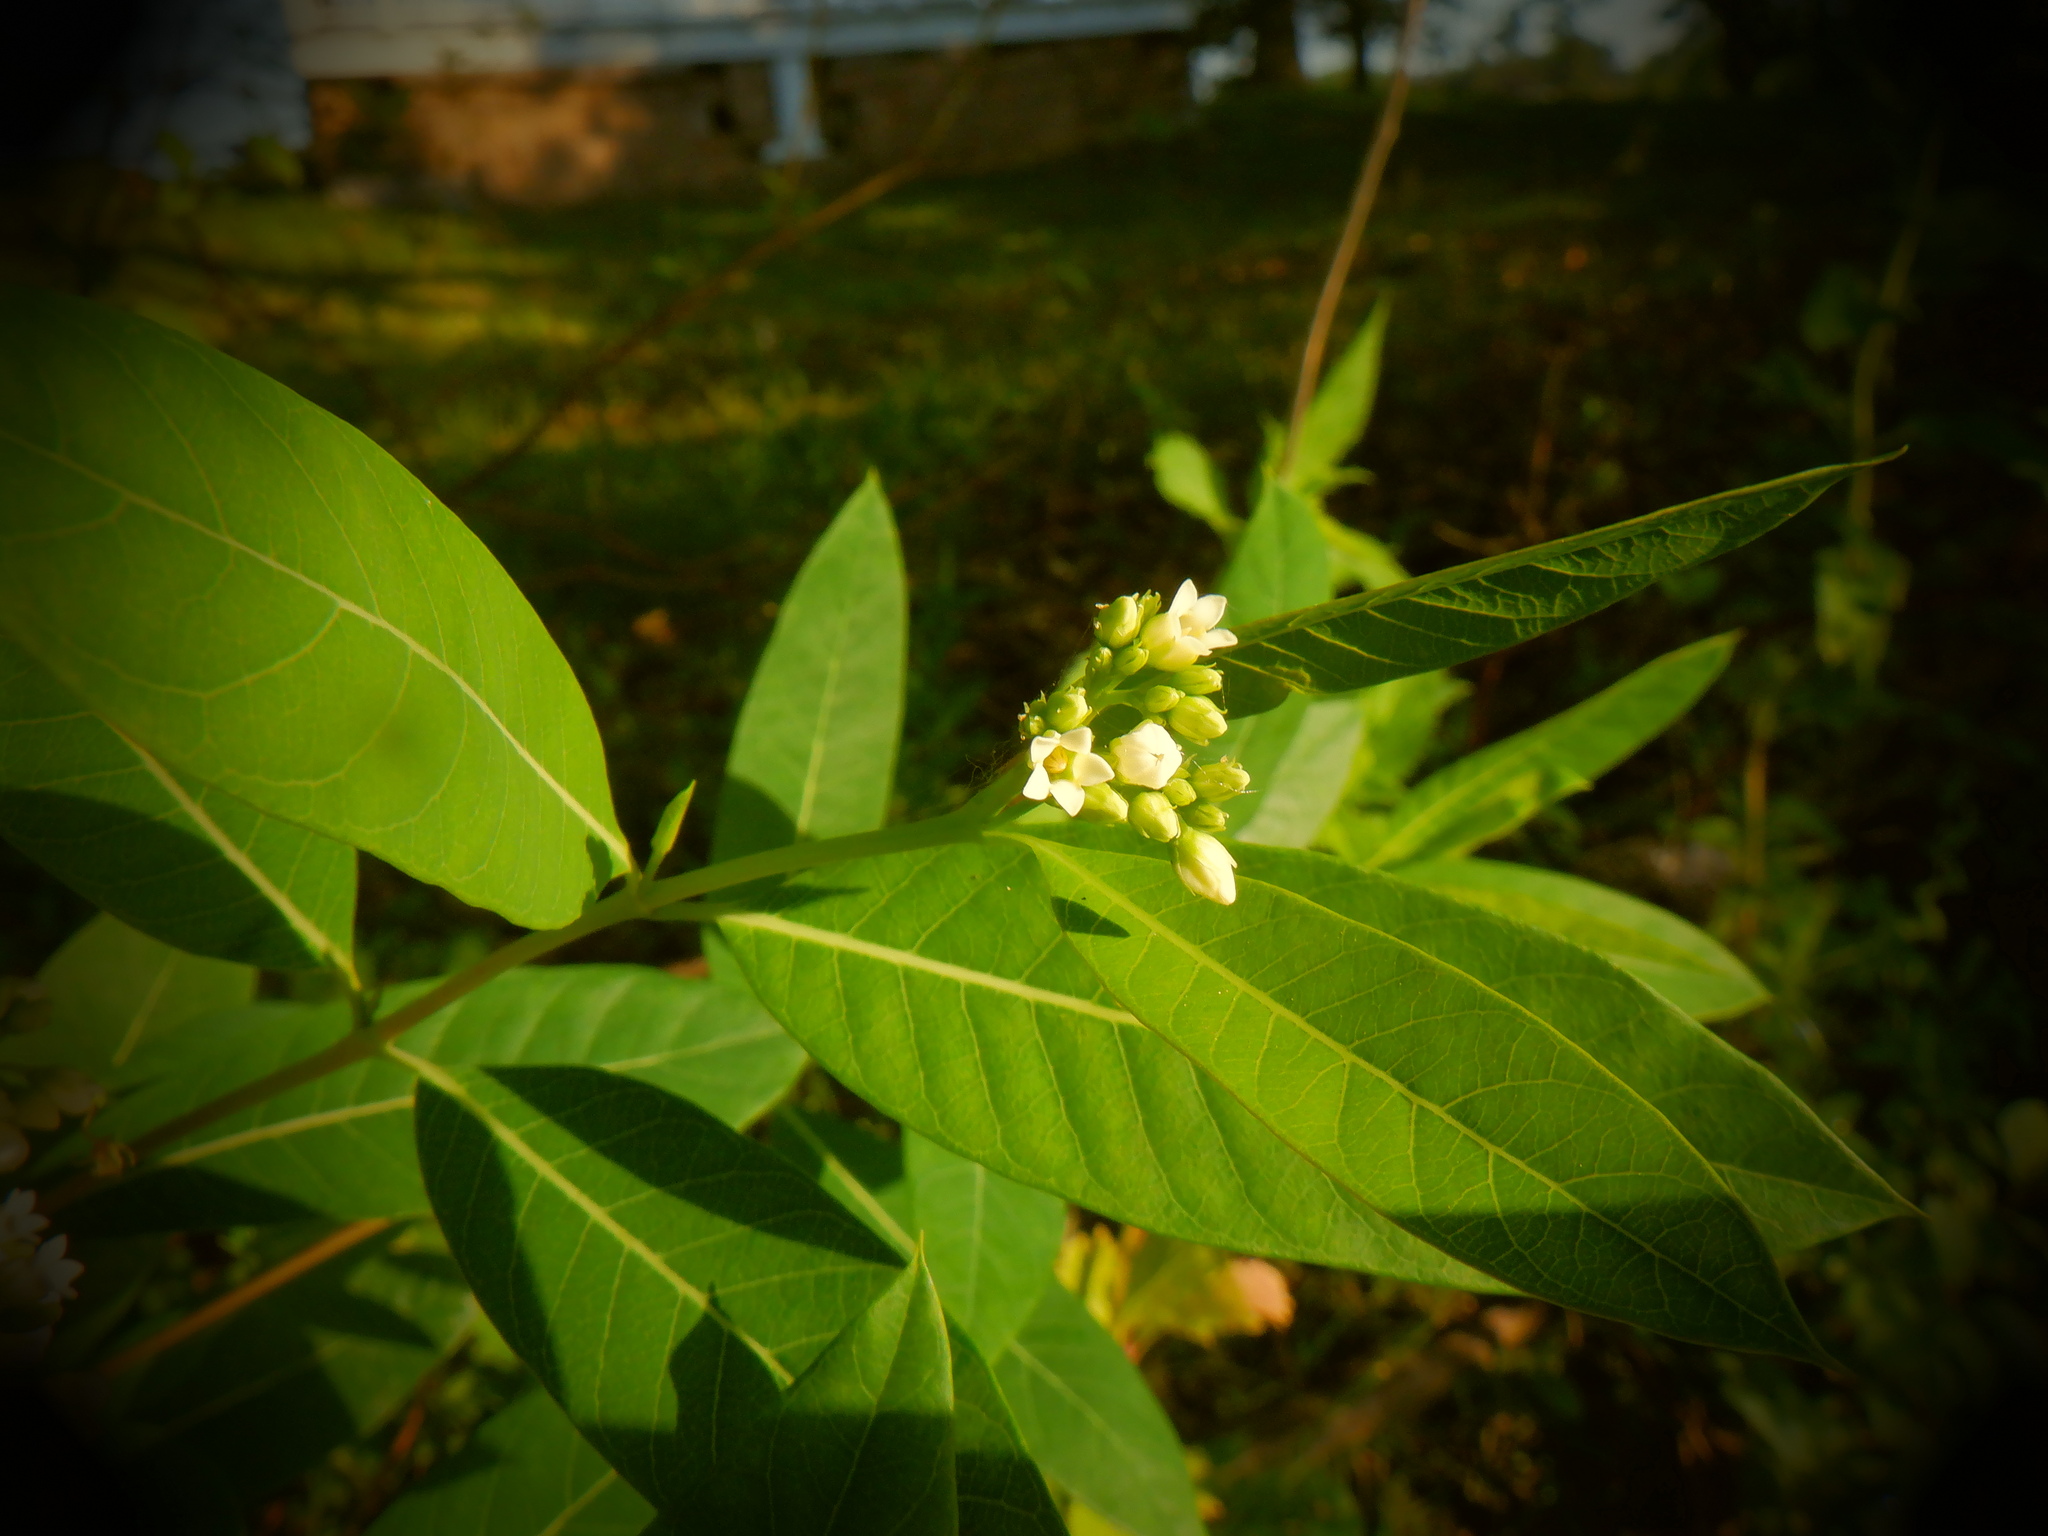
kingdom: Plantae
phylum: Tracheophyta
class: Magnoliopsida
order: Gentianales
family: Apocynaceae
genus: Apocynum
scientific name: Apocynum cannabinum
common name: Hemp dogbane
